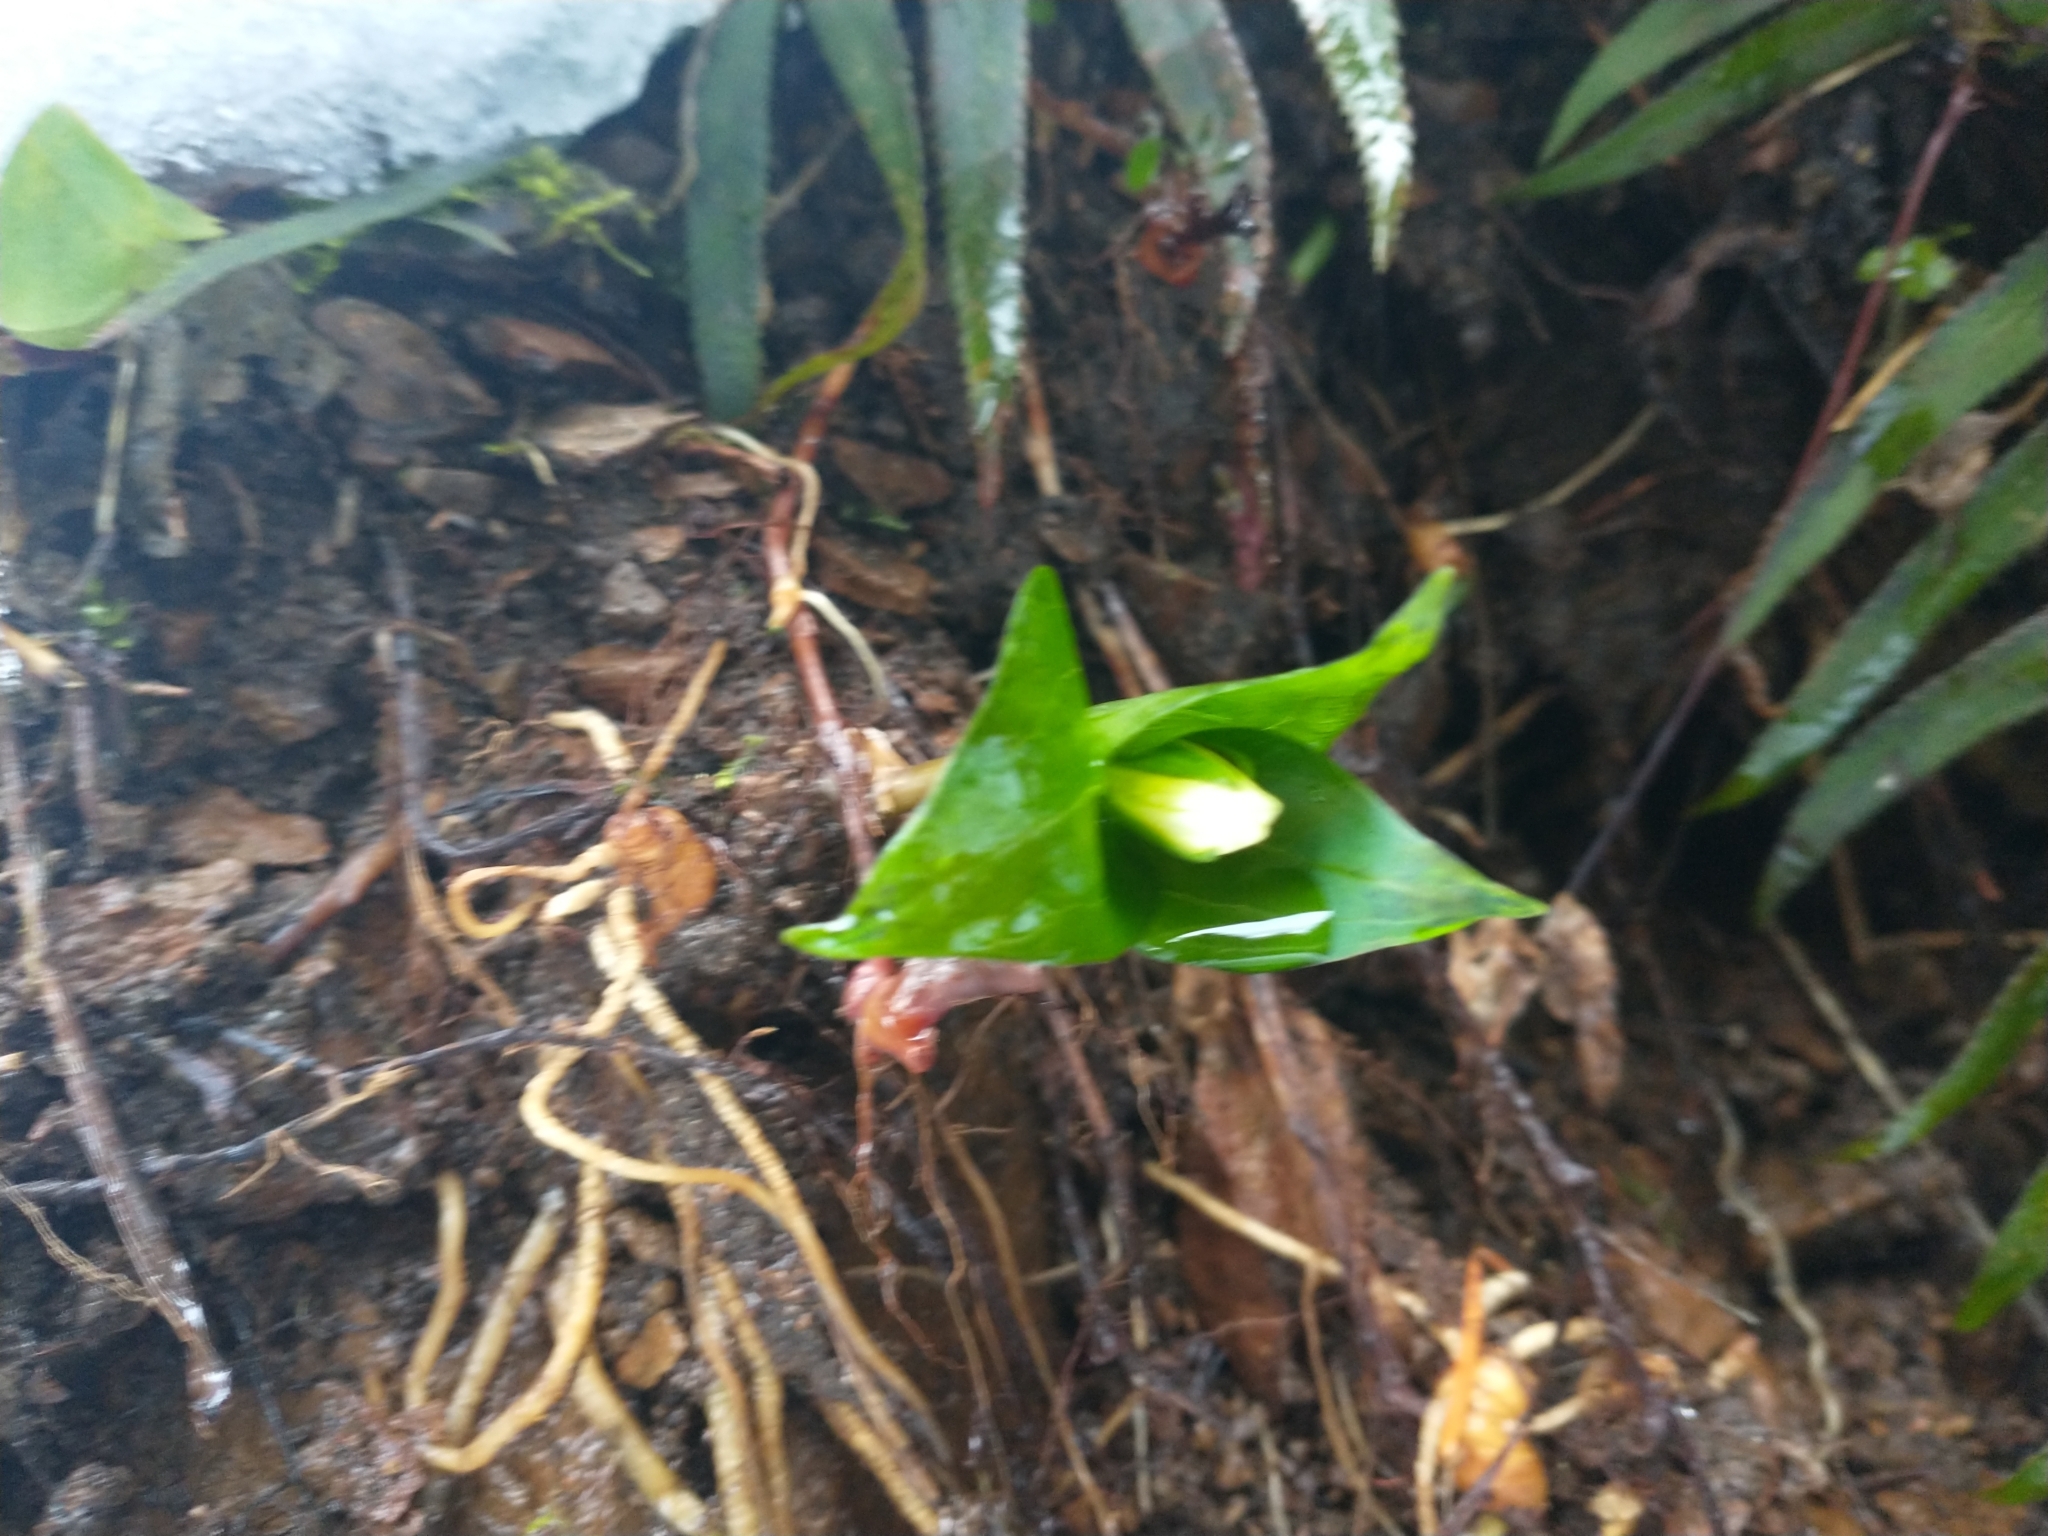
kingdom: Plantae
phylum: Tracheophyta
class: Liliopsida
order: Liliales
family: Melanthiaceae
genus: Trillium
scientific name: Trillium ovatum
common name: Pacific trillium
